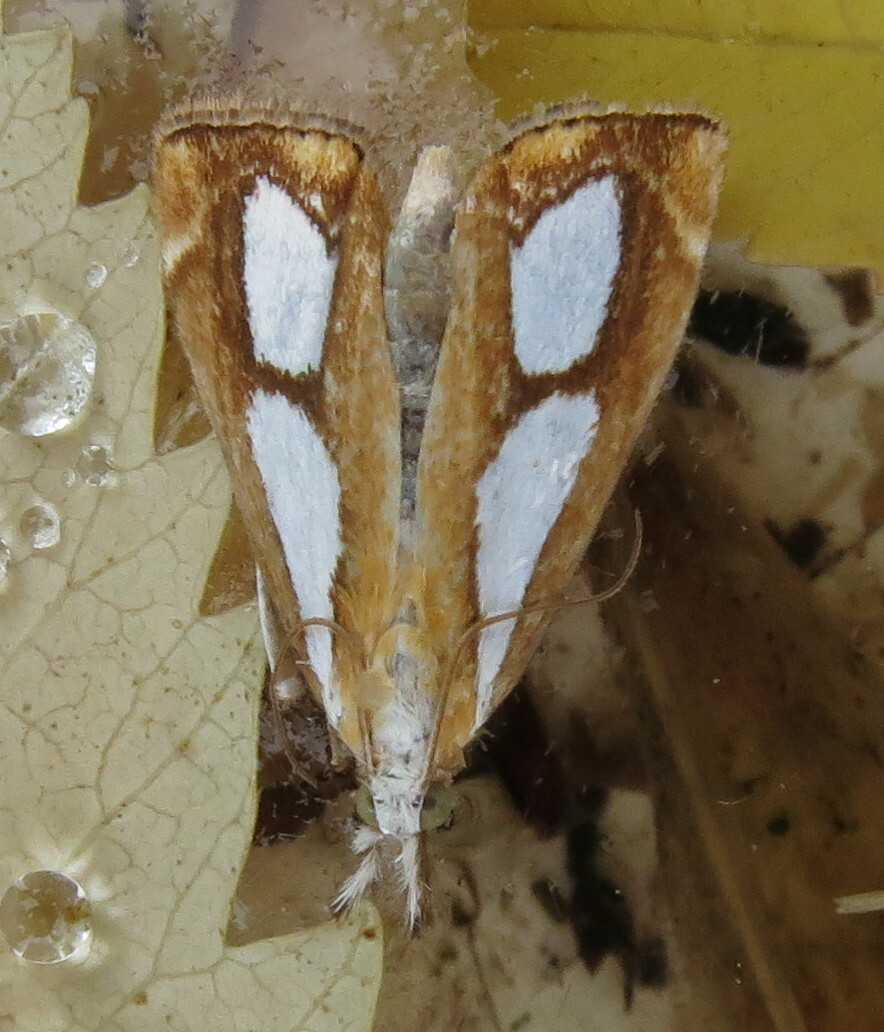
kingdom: Animalia
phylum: Arthropoda
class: Insecta
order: Lepidoptera
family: Crambidae
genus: Catoptria
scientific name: Catoptria pinella
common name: Pearl grass-veneer
